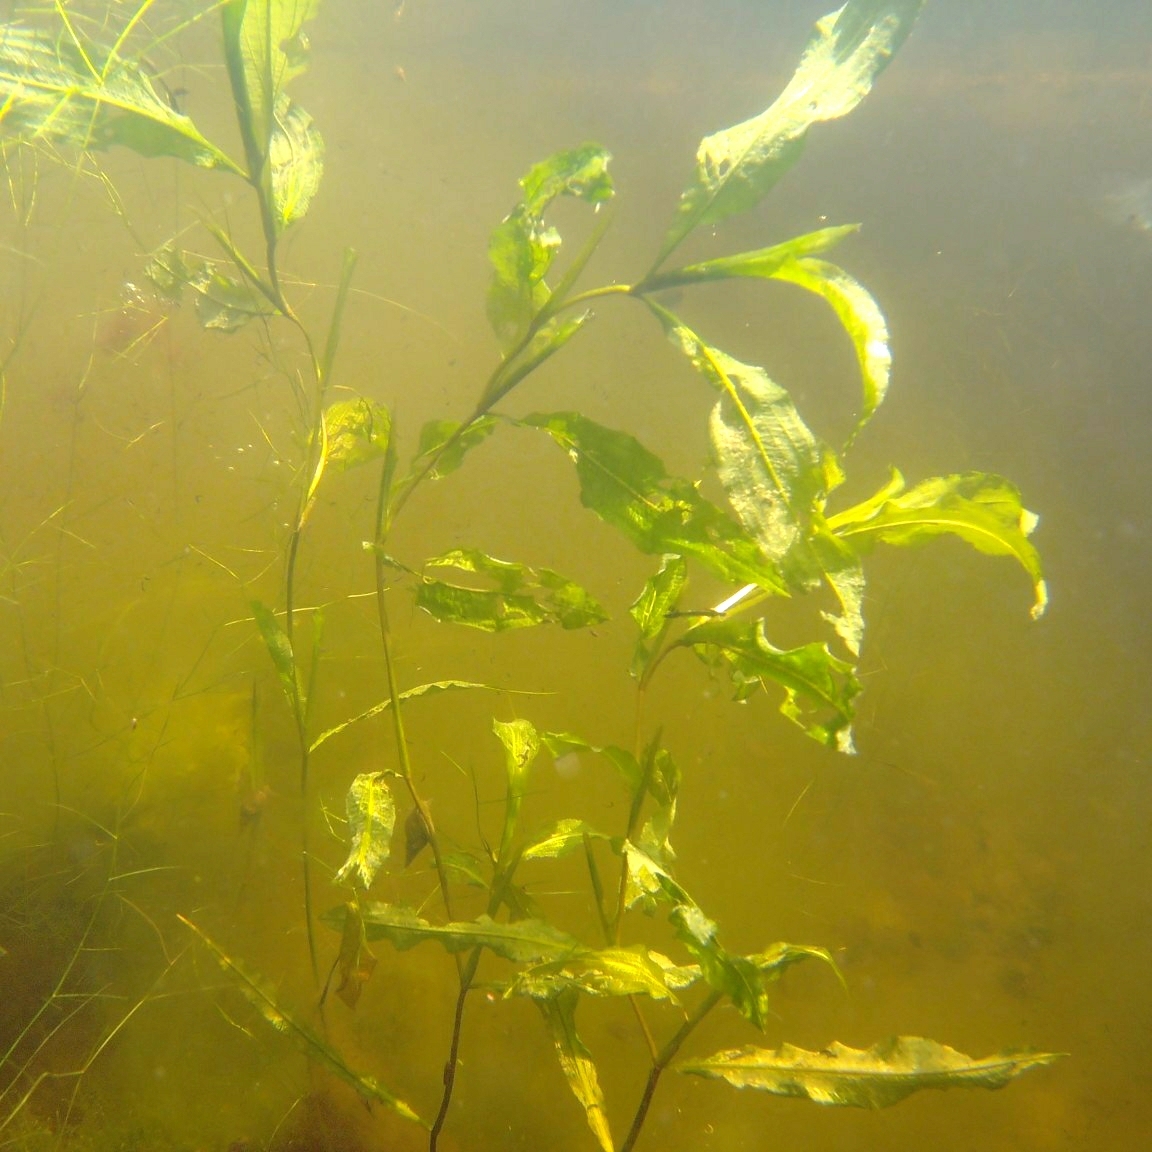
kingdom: Plantae
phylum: Tracheophyta
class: Liliopsida
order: Alismatales
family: Potamogetonaceae
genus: Potamogeton
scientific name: Potamogeton lucens
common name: Shining pondweed
